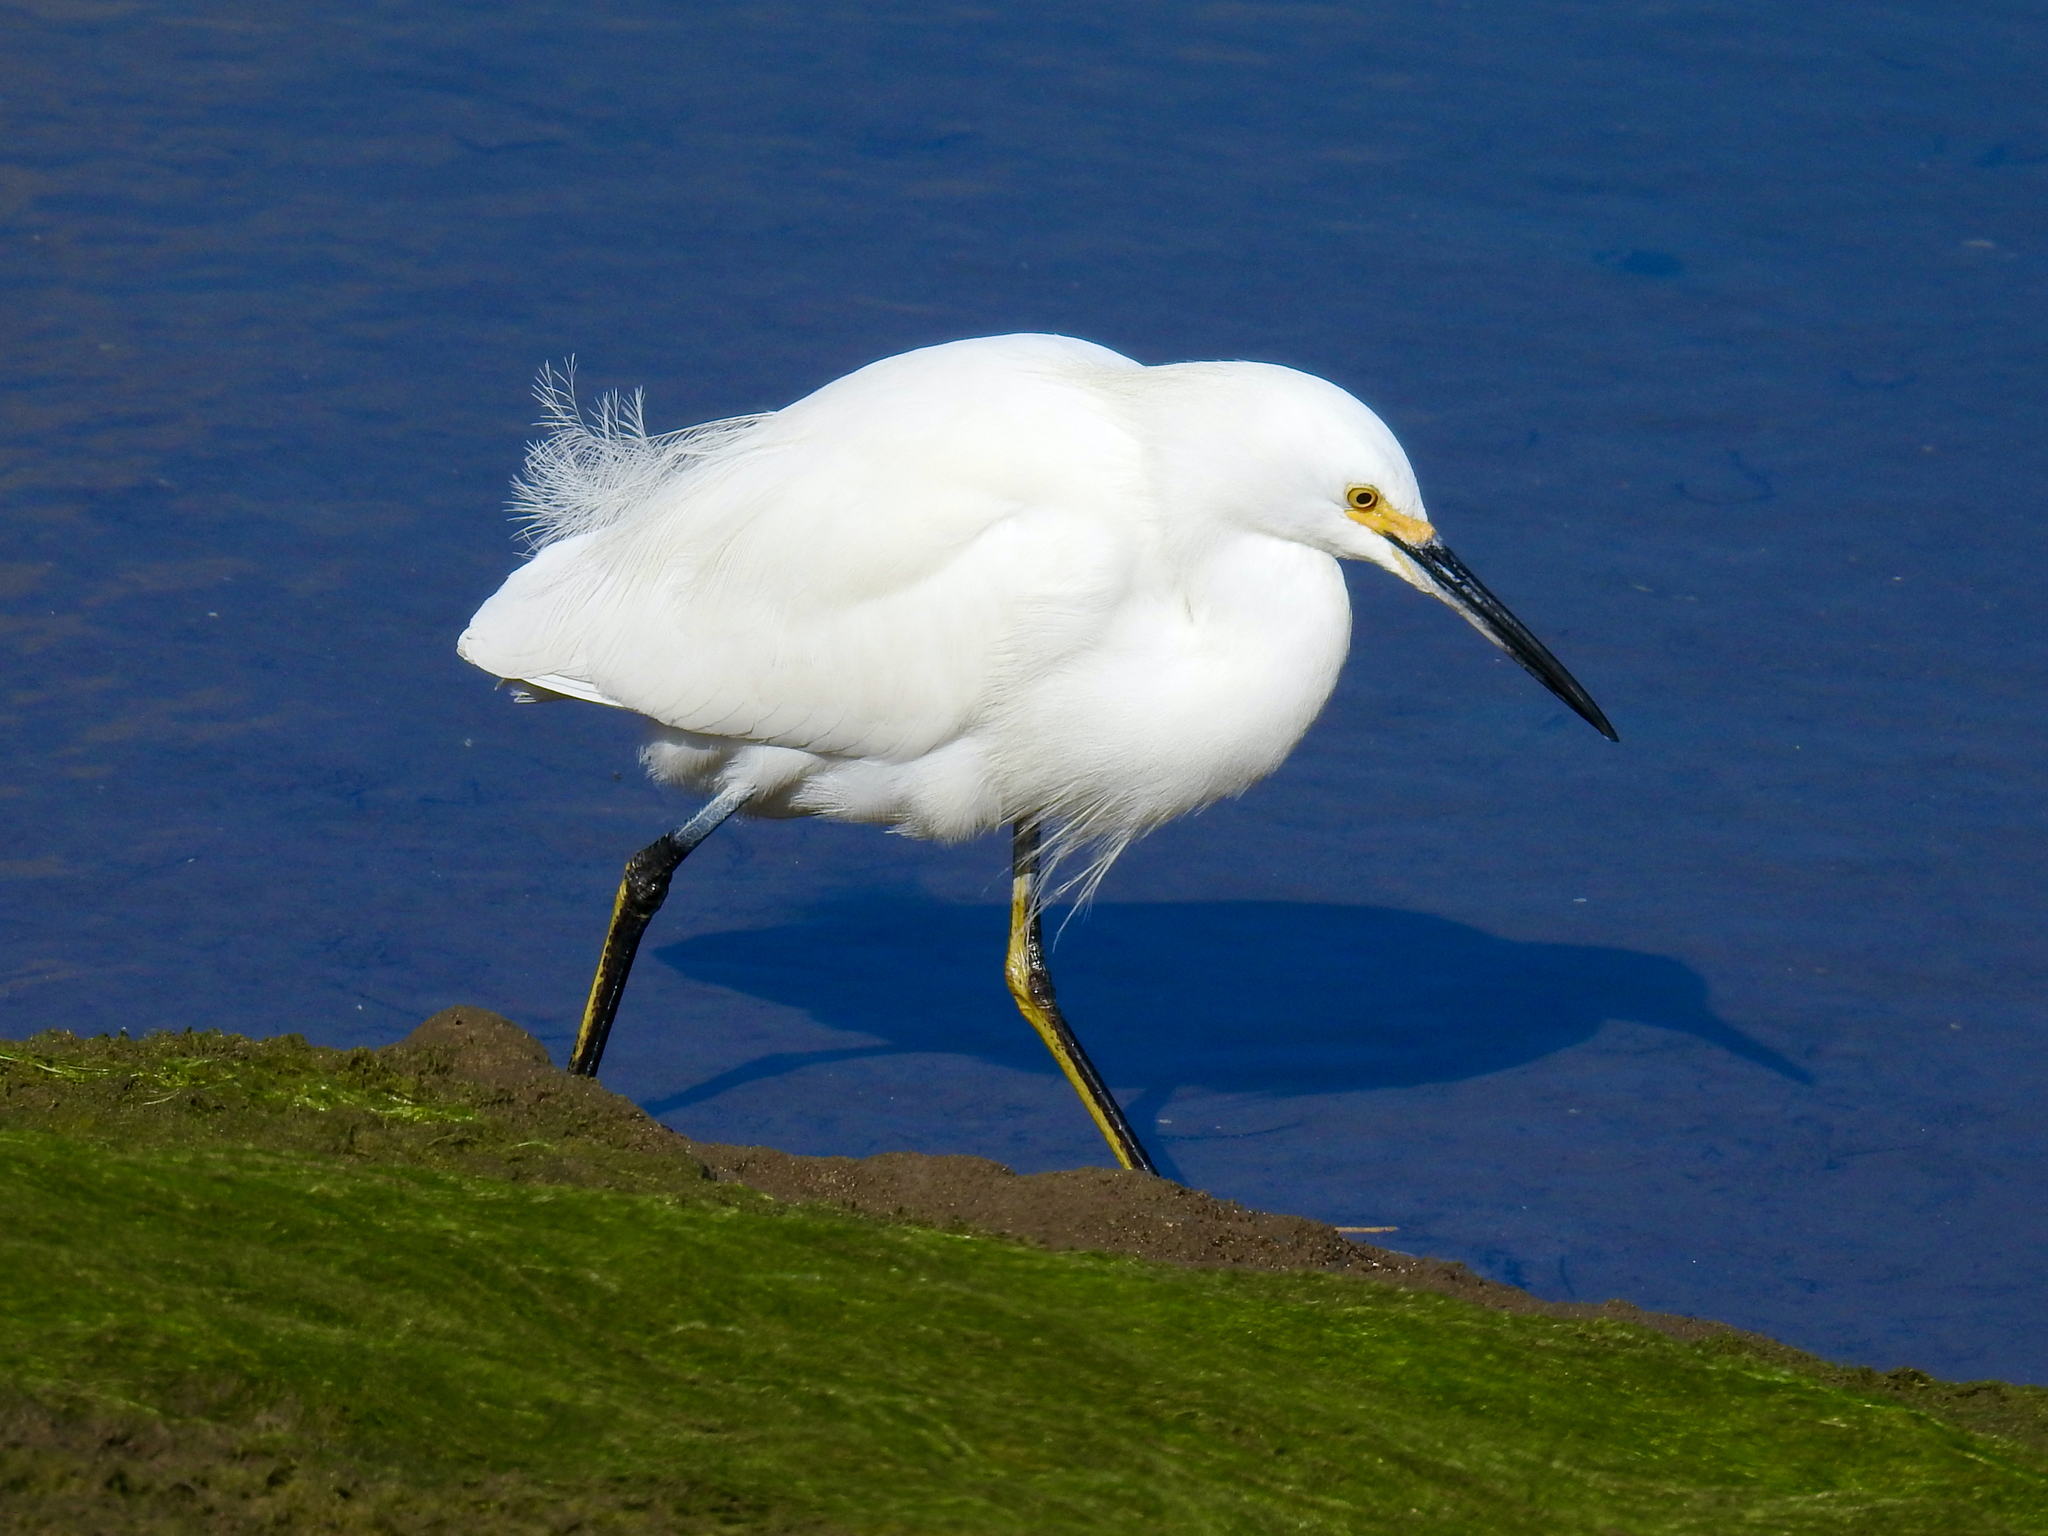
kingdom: Animalia
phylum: Chordata
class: Aves
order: Pelecaniformes
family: Ardeidae
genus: Egretta
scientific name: Egretta thula
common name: Snowy egret
